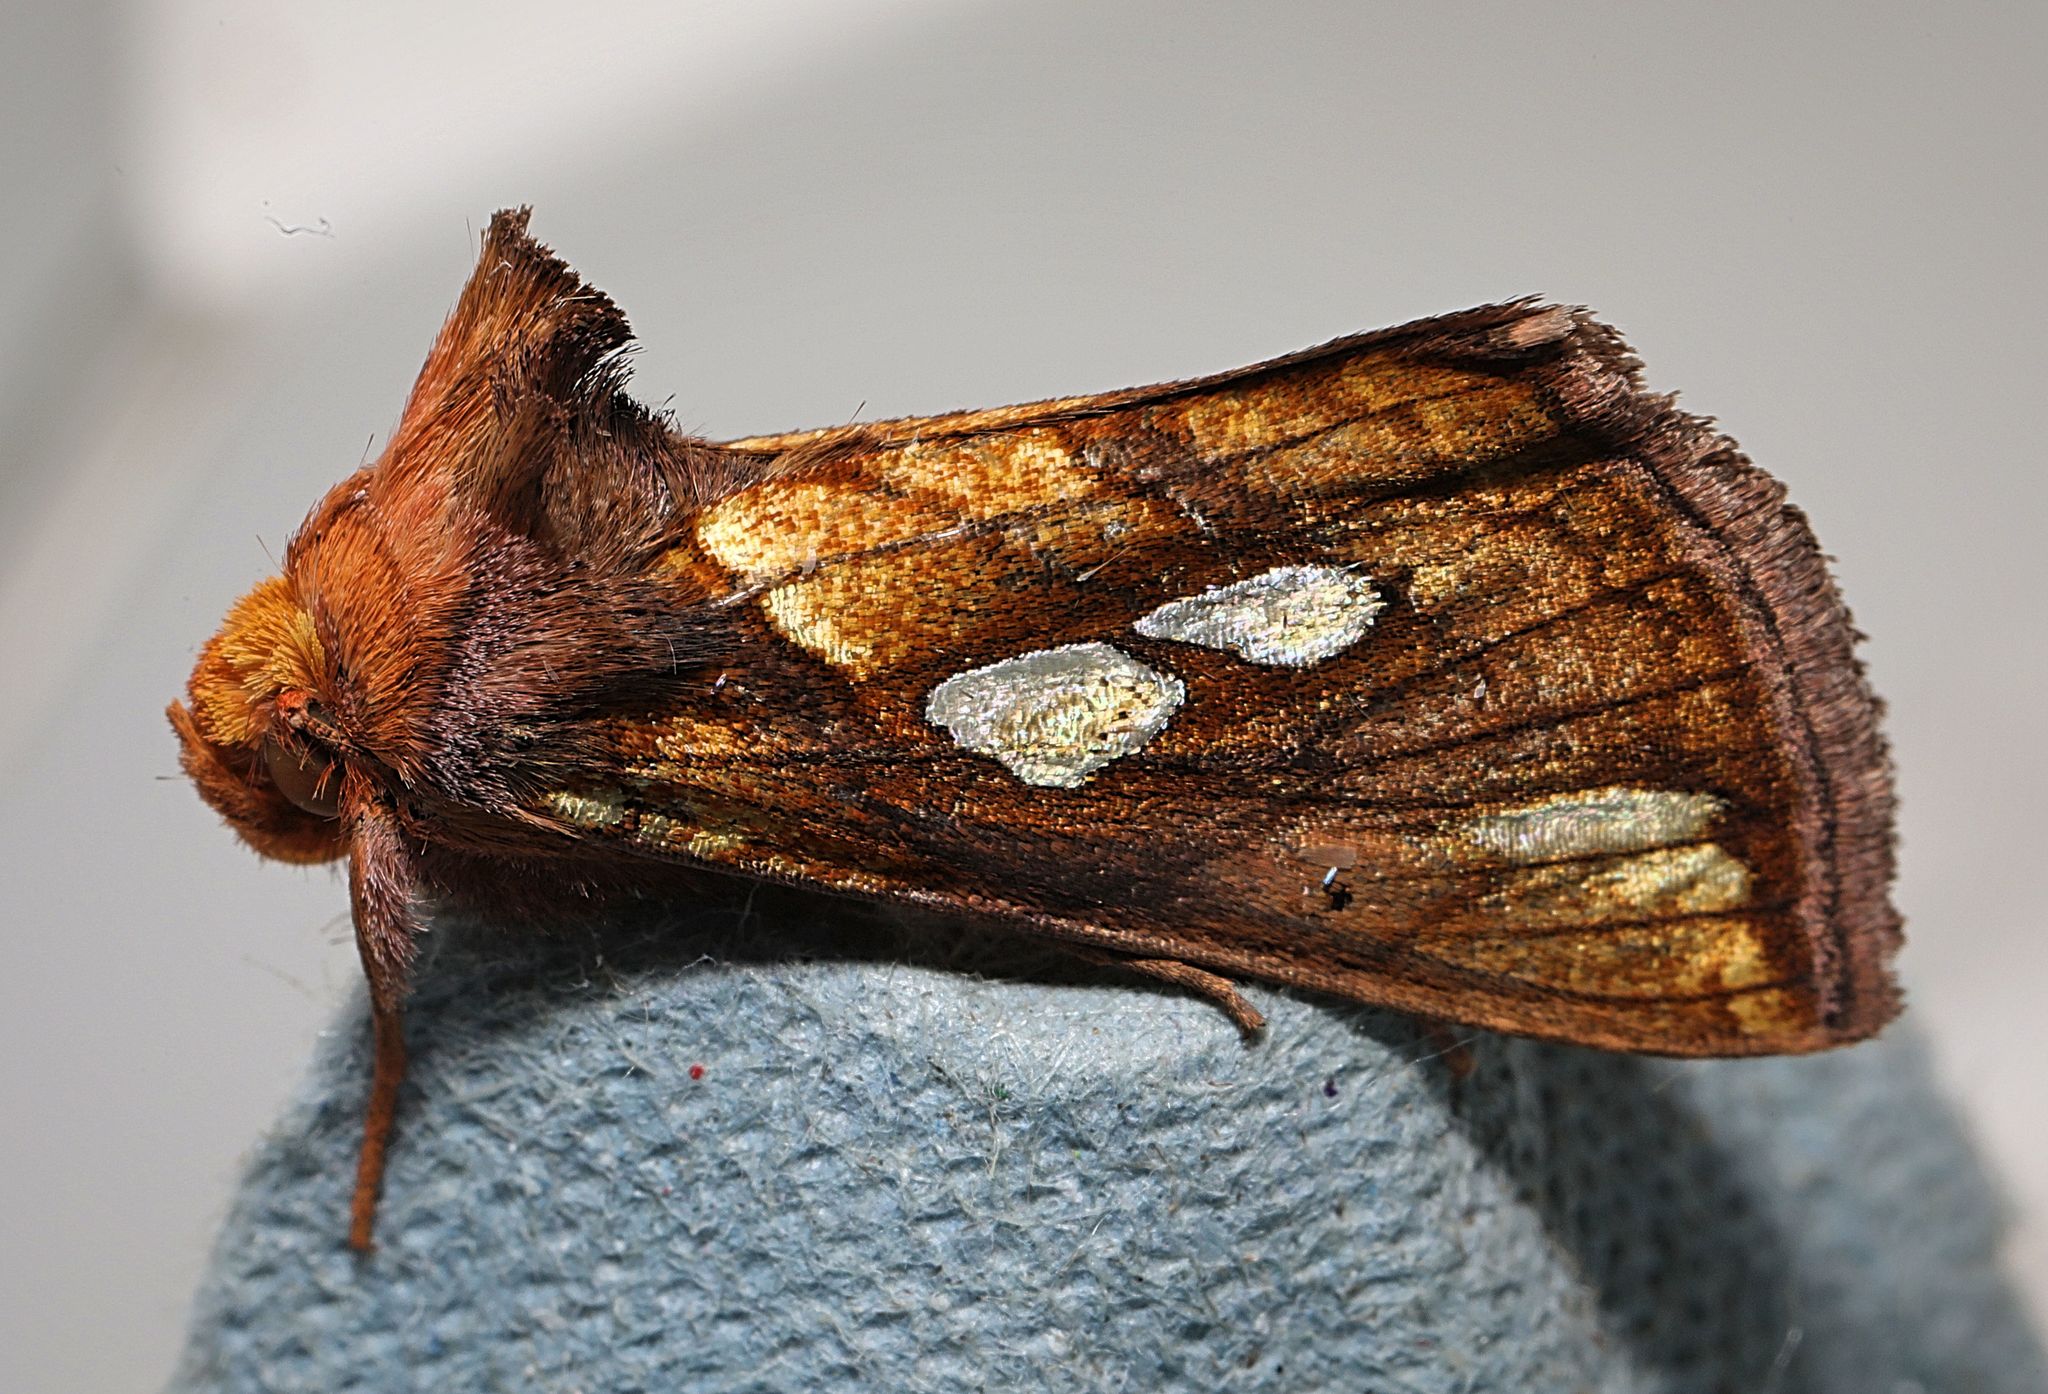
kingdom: Animalia
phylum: Arthropoda
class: Insecta
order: Lepidoptera
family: Noctuidae
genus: Plusia
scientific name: Plusia festucae
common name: Gold spot
